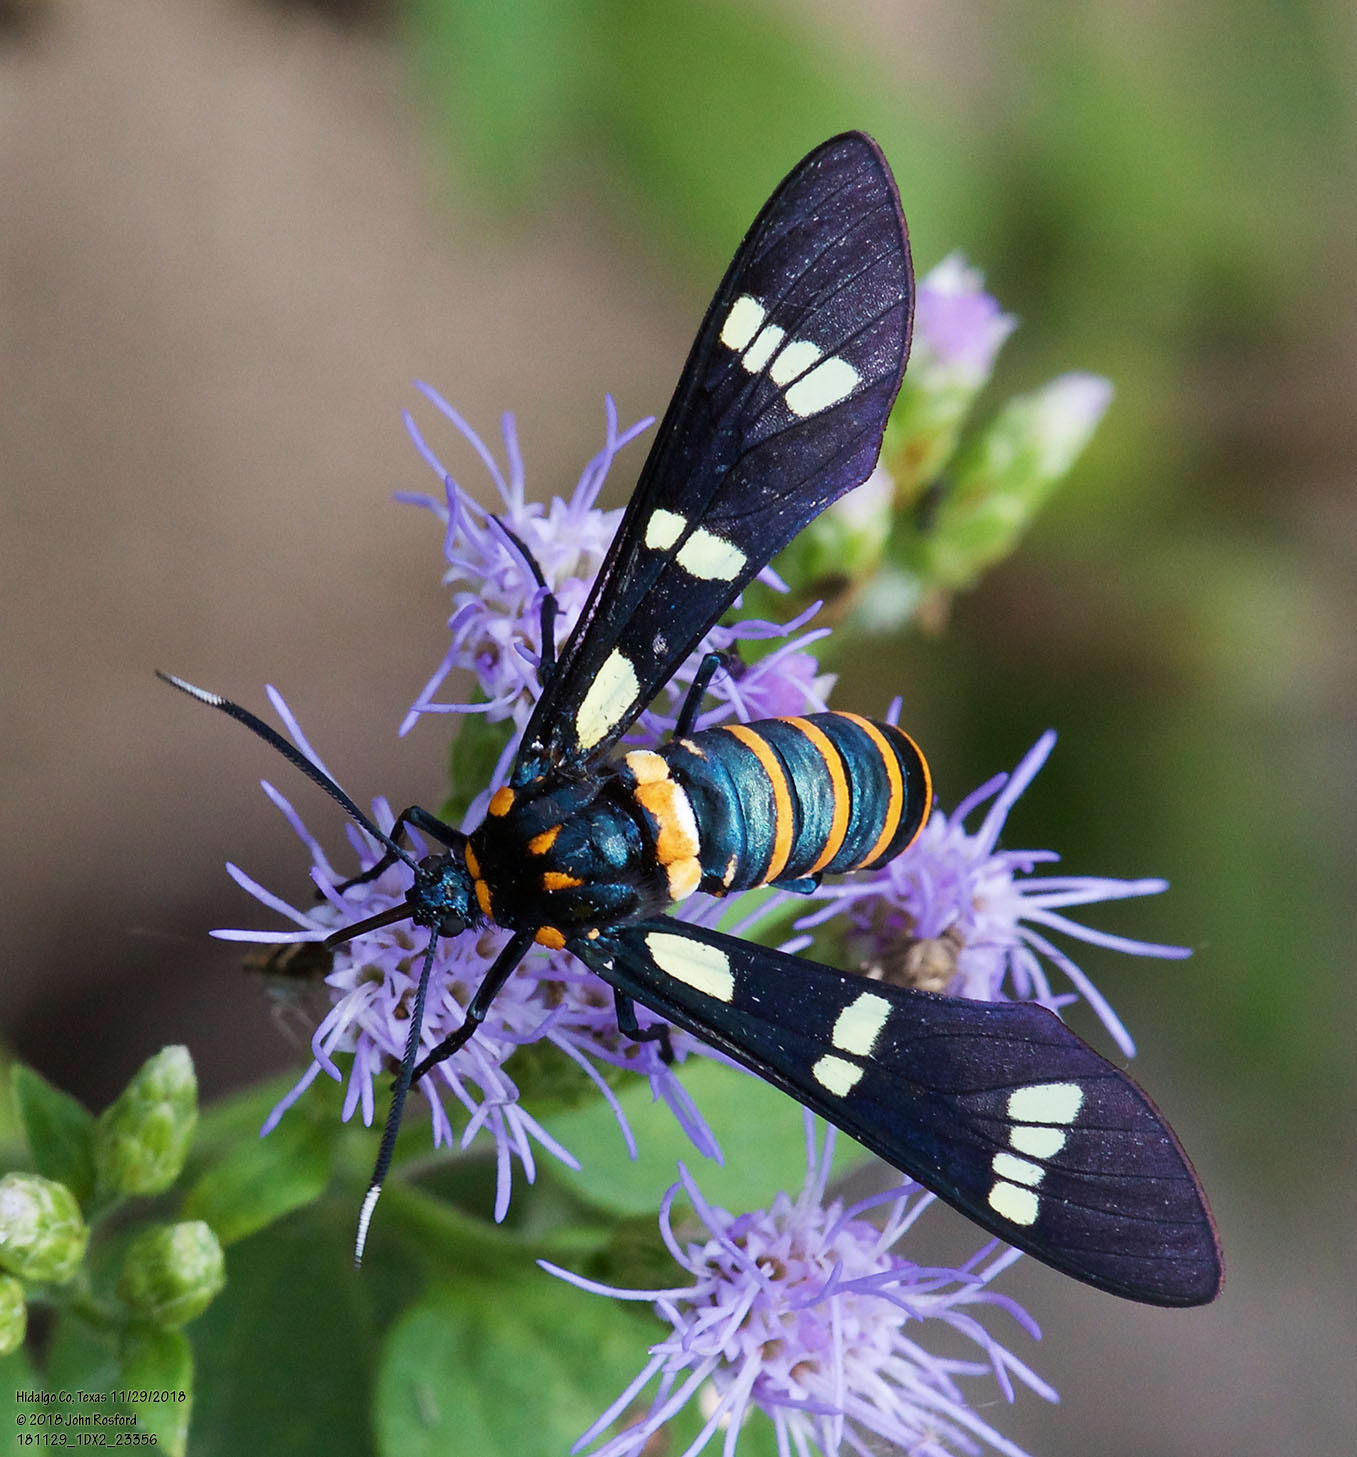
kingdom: Animalia
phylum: Arthropoda
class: Insecta
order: Lepidoptera
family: Erebidae
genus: Syntomeida
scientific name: Syntomeida melanthus
